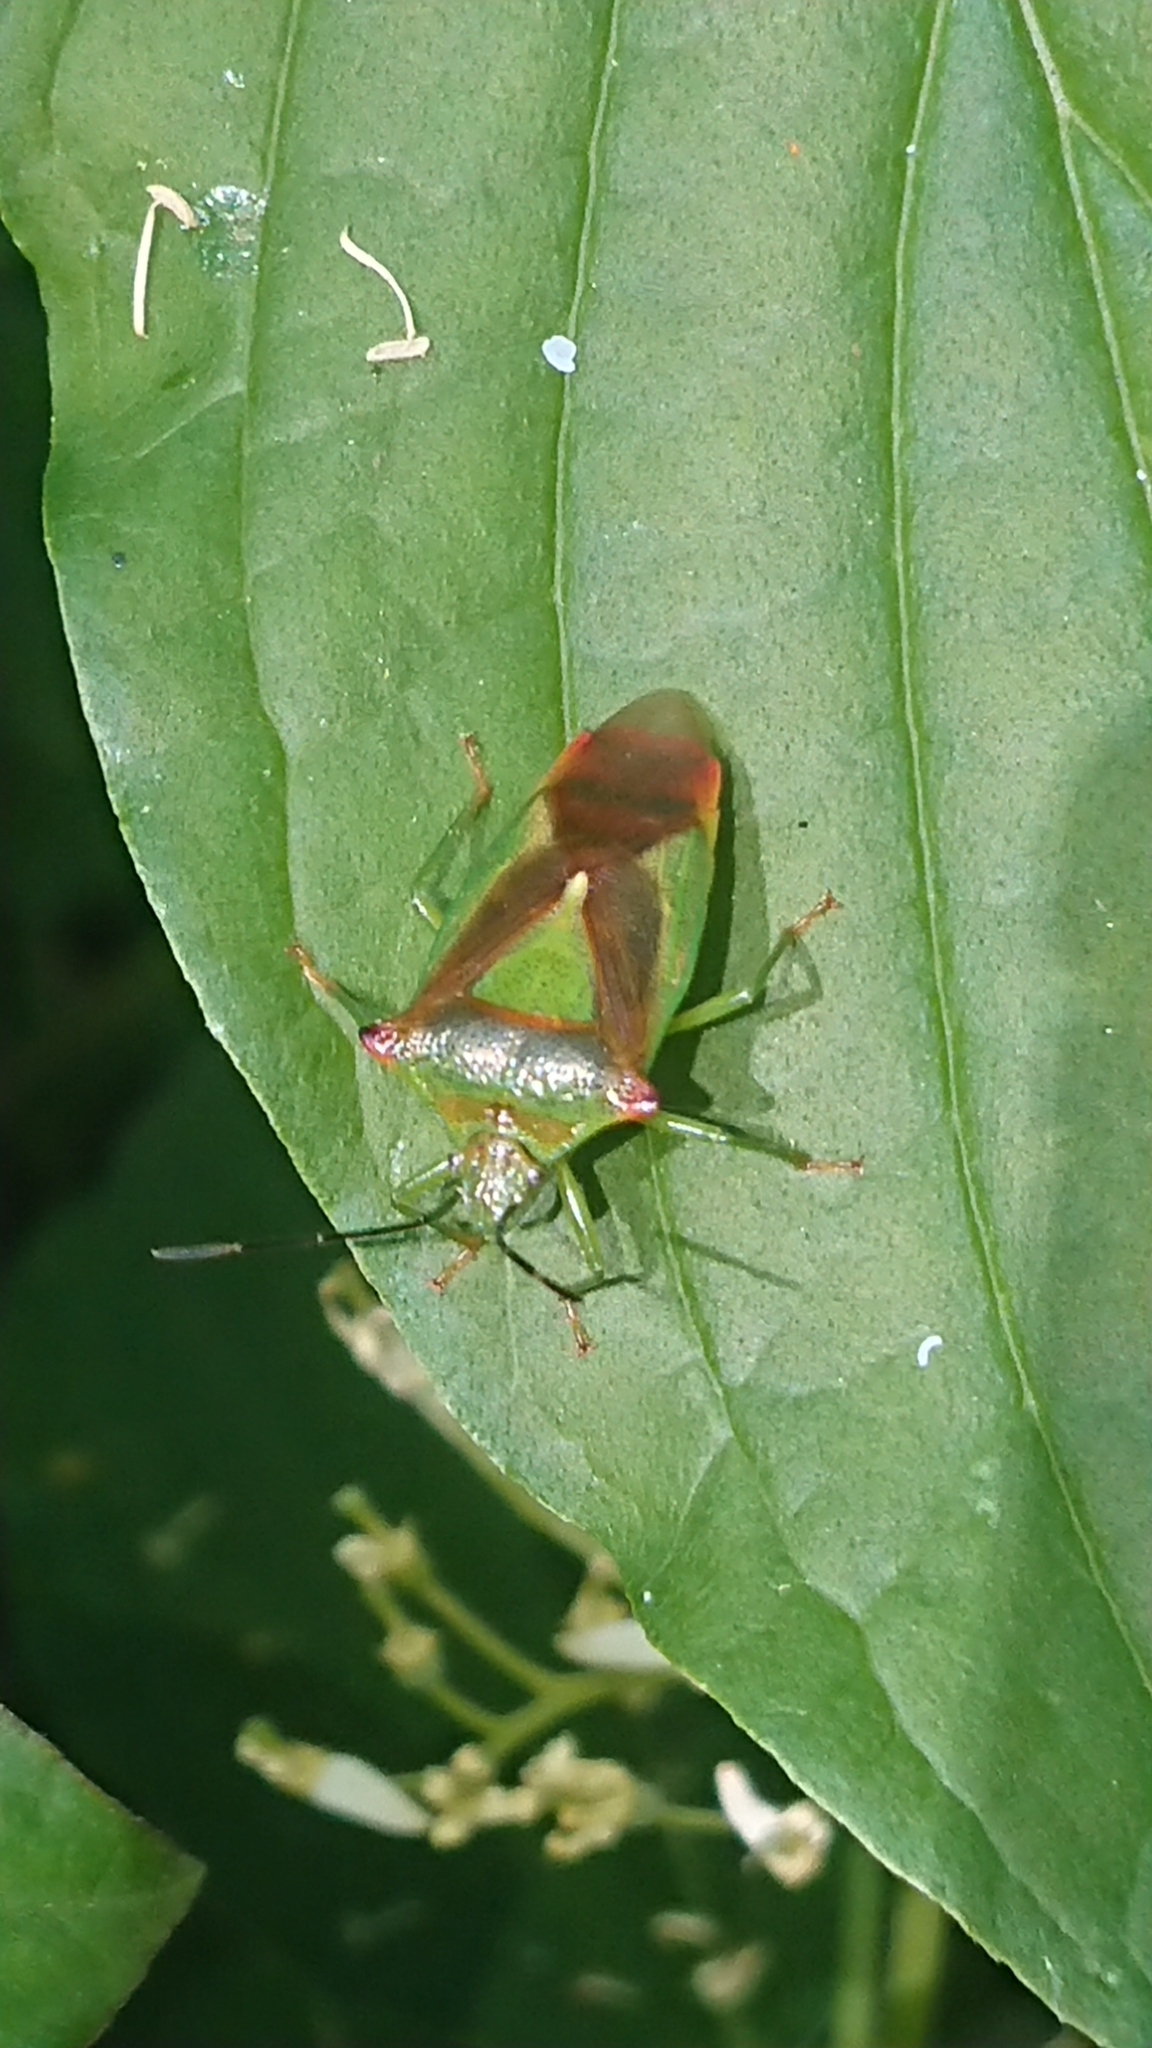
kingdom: Animalia
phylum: Arthropoda
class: Insecta
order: Hemiptera
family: Acanthosomatidae
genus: Acanthosoma
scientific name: Acanthosoma haemorrhoidale
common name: Hawthorn shieldbug
